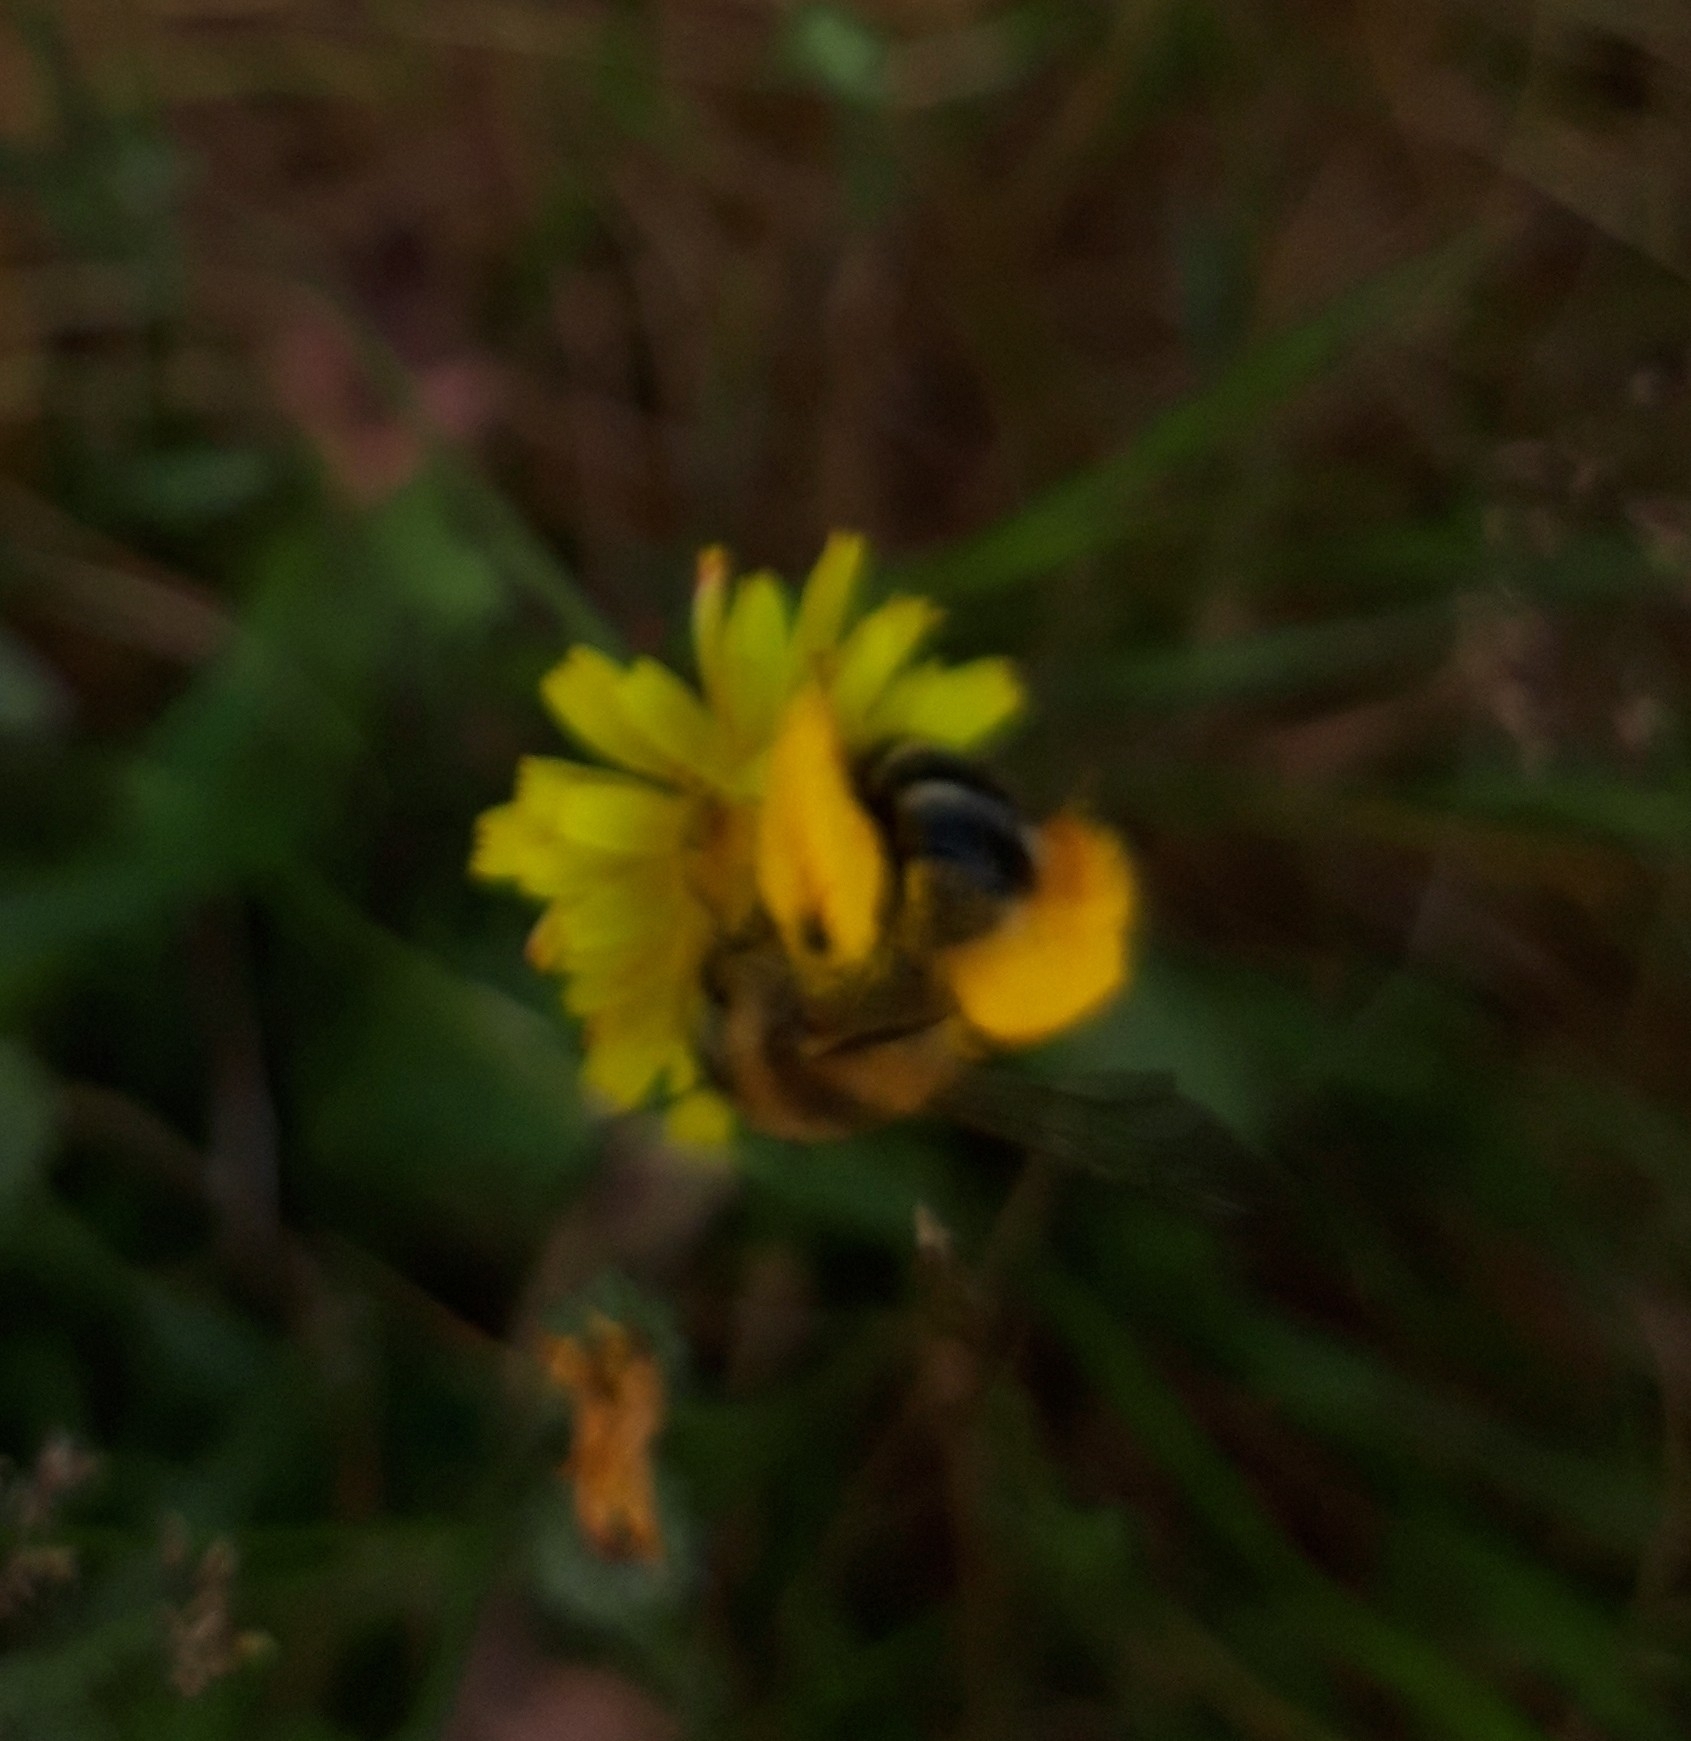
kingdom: Animalia
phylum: Arthropoda
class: Insecta
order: Hymenoptera
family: Melittidae
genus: Dasypoda
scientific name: Dasypoda hirtipes
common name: Pantaloon bee
